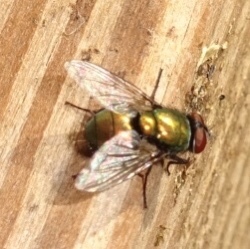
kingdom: Animalia
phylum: Arthropoda
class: Insecta
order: Diptera
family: Calliphoridae
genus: Lucilia
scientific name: Lucilia sericata
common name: Blow fly
